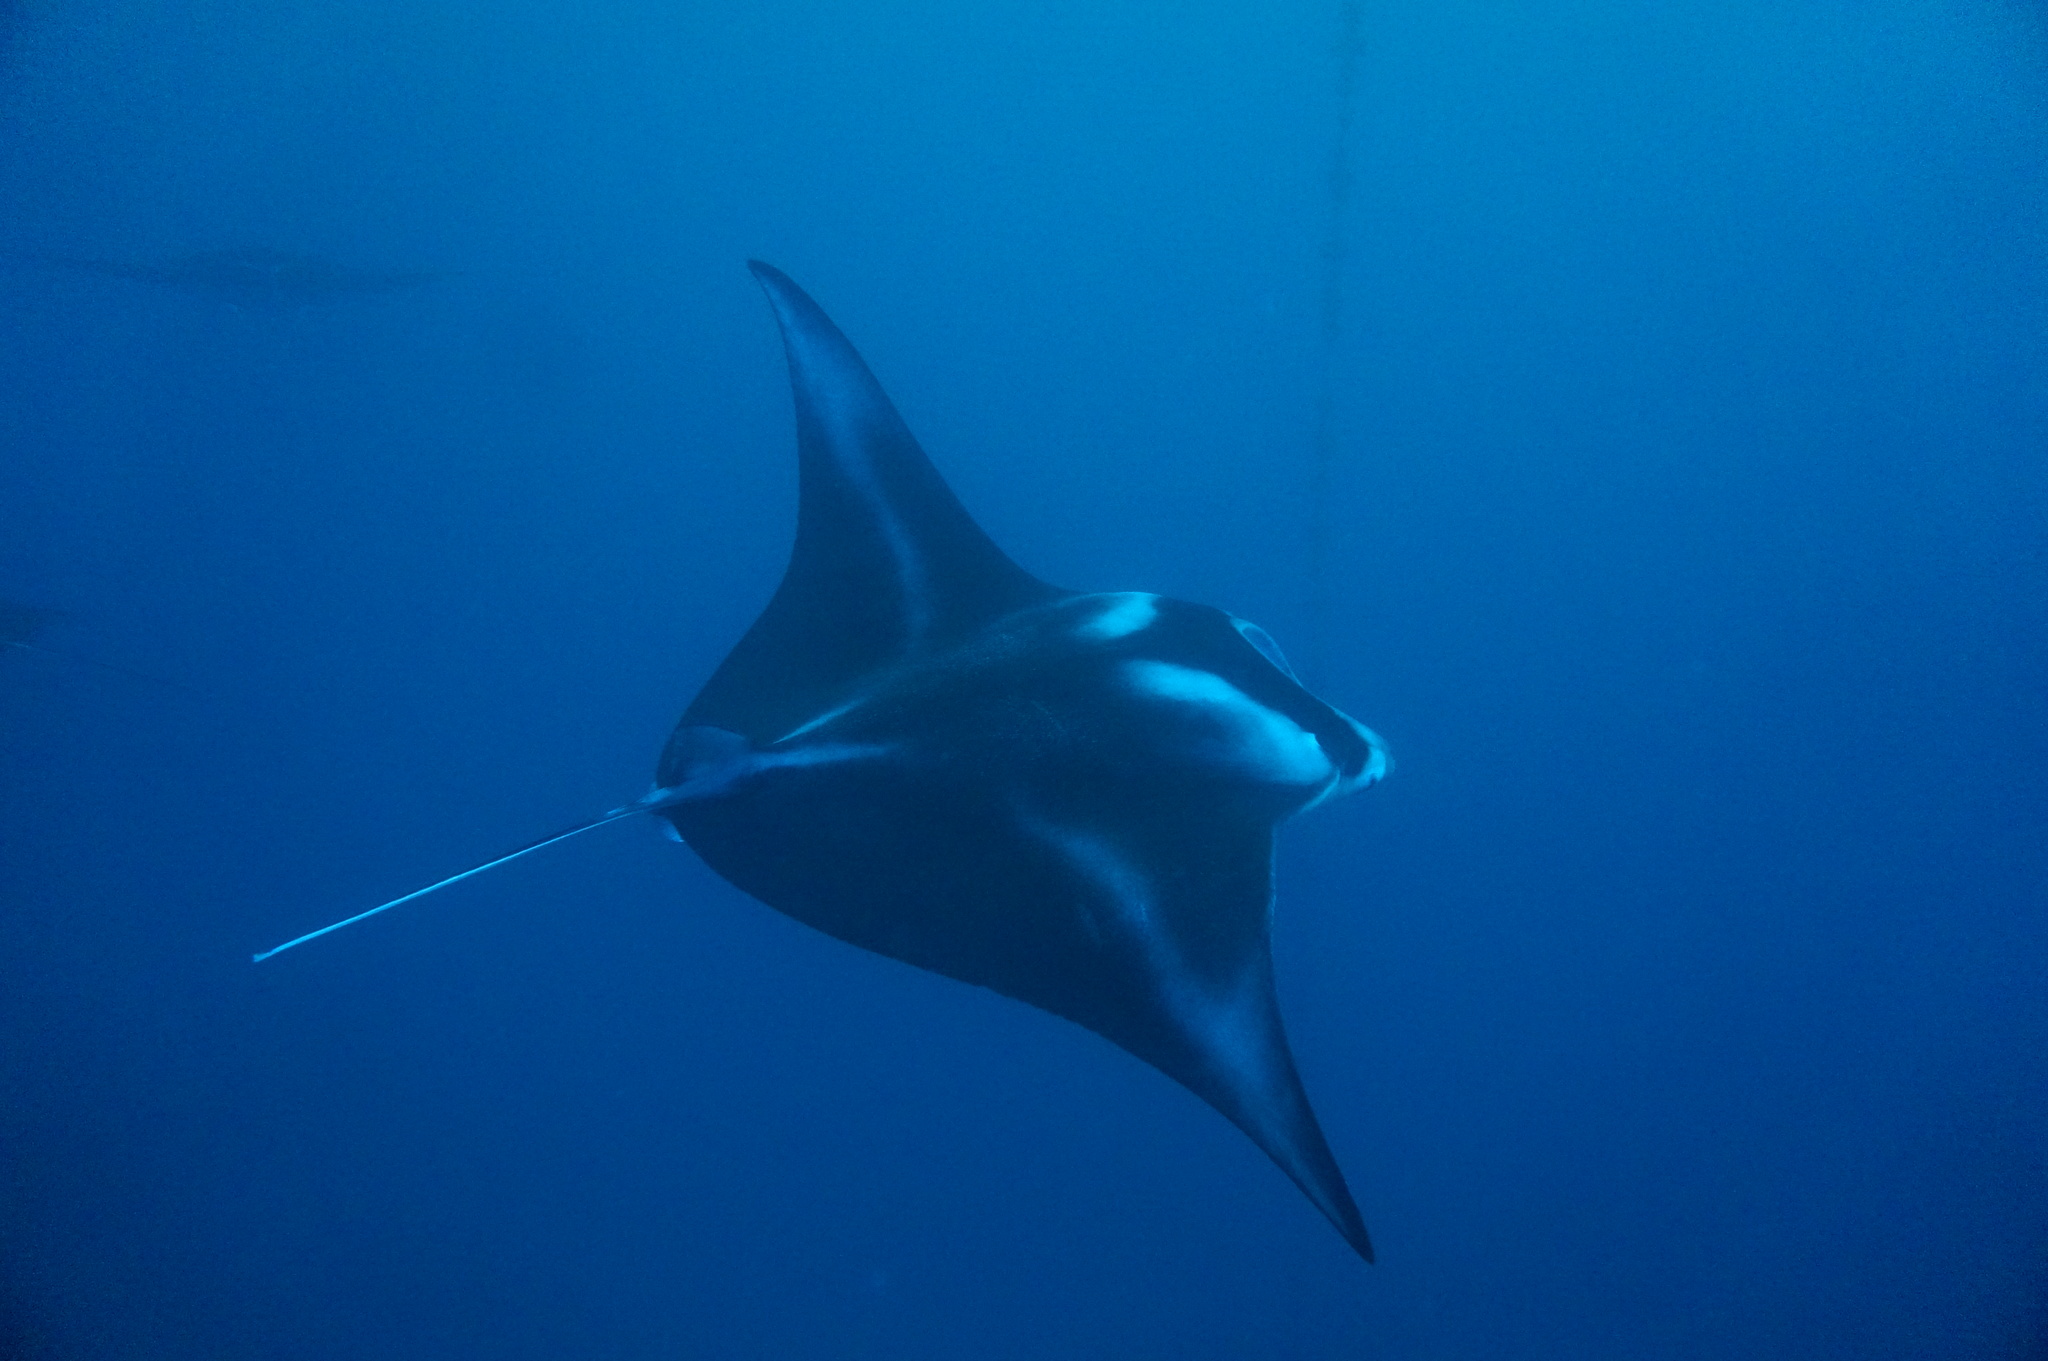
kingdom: Animalia
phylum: Chordata
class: Elasmobranchii
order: Myliobatiformes
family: Myliobatidae
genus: Mobula
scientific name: Mobula alfredi
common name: Reef manta ray
